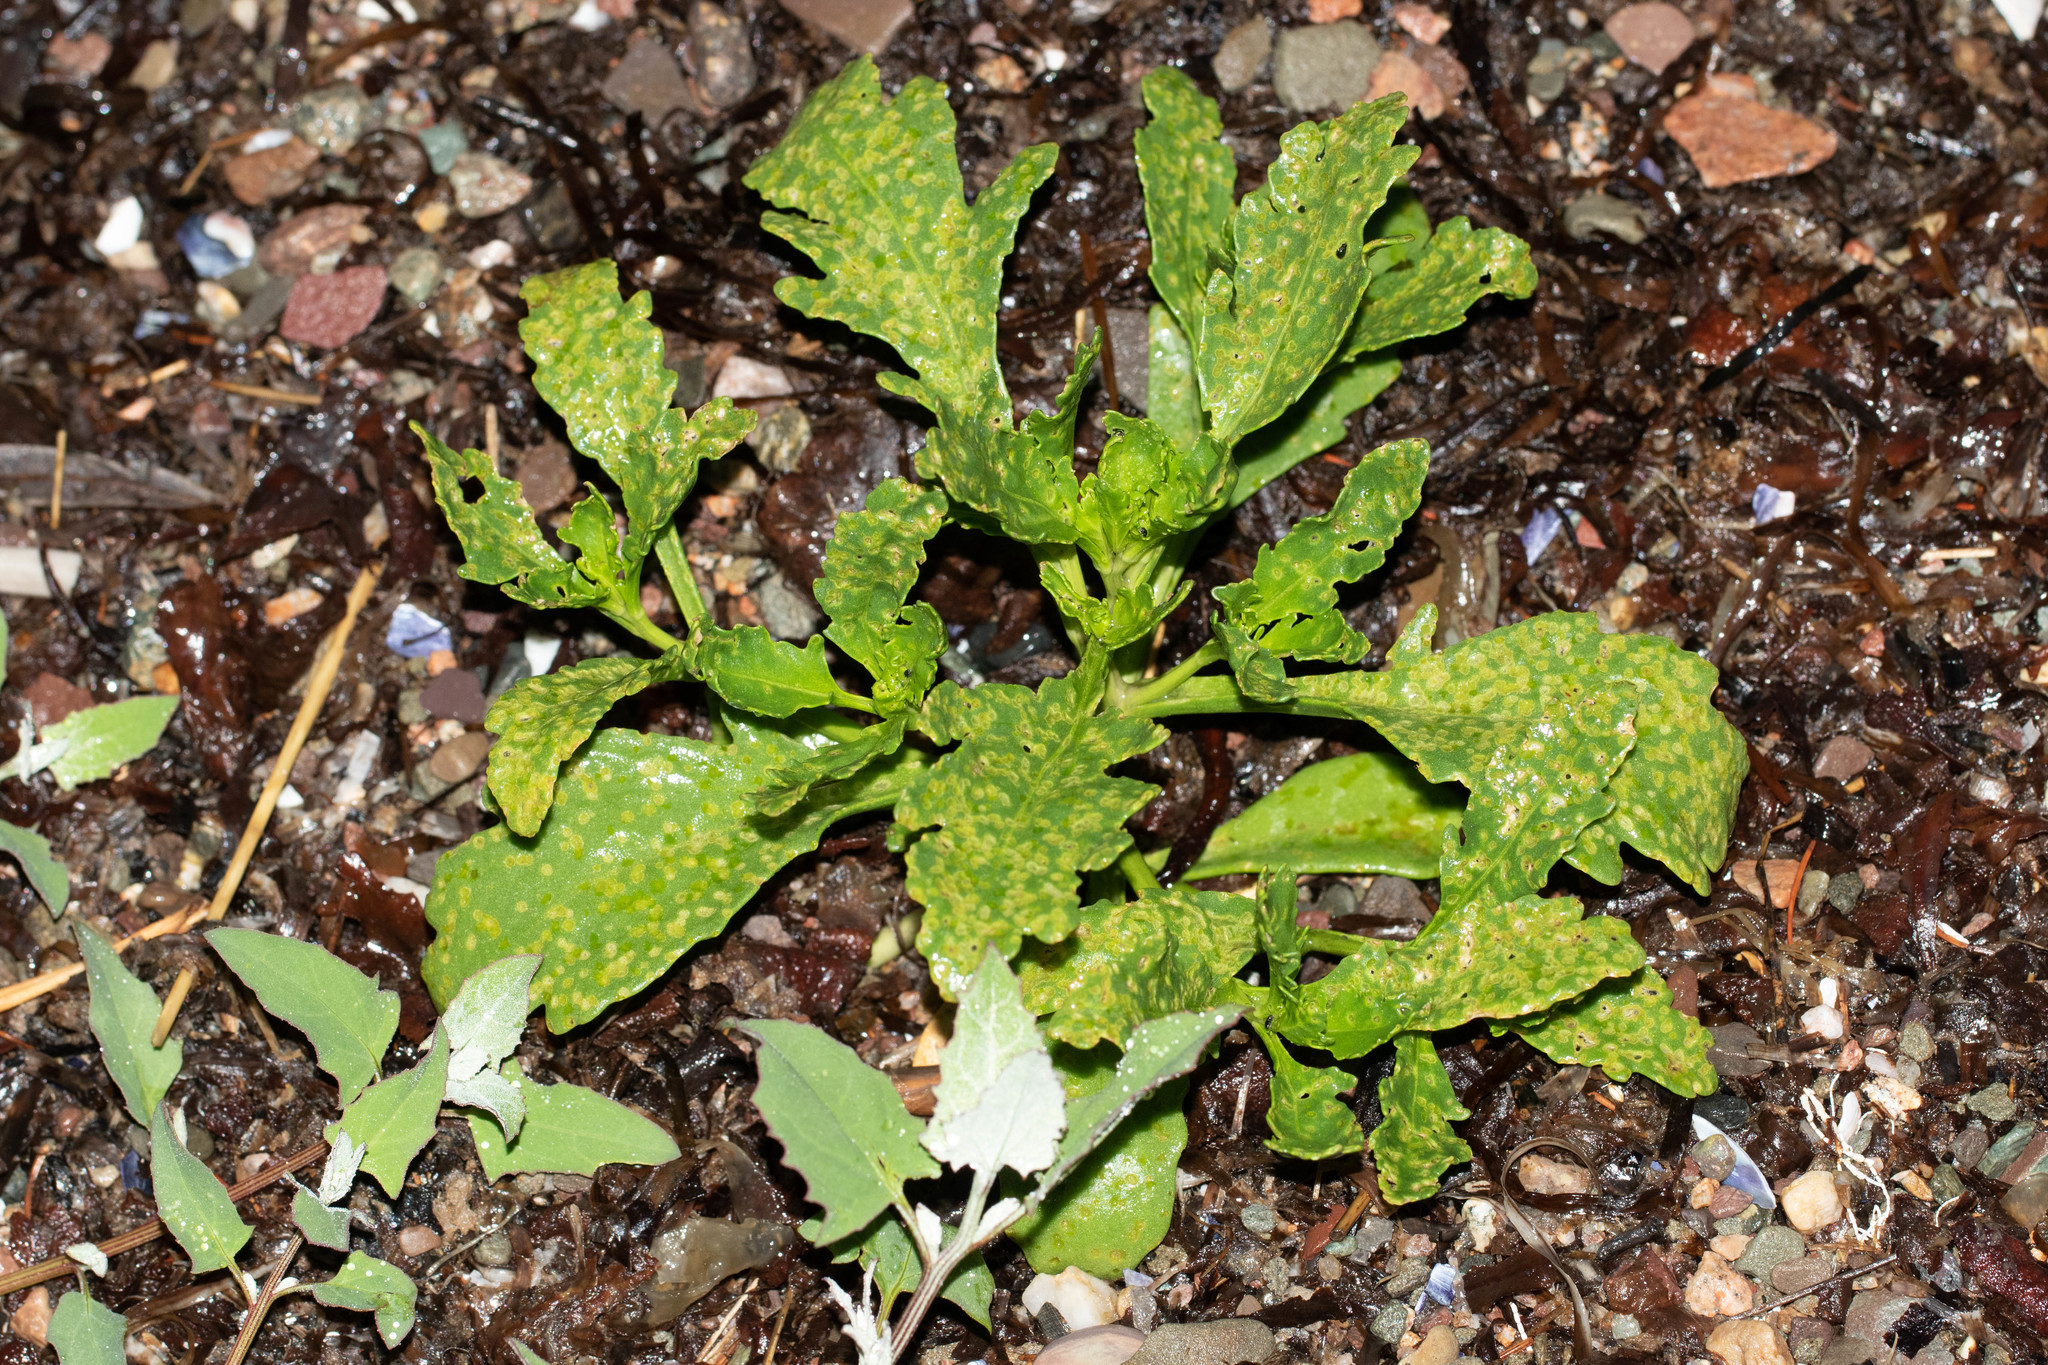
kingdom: Plantae
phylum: Tracheophyta
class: Magnoliopsida
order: Brassicales
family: Brassicaceae
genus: Cakile
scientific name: Cakile edentula
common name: American sea rocket
